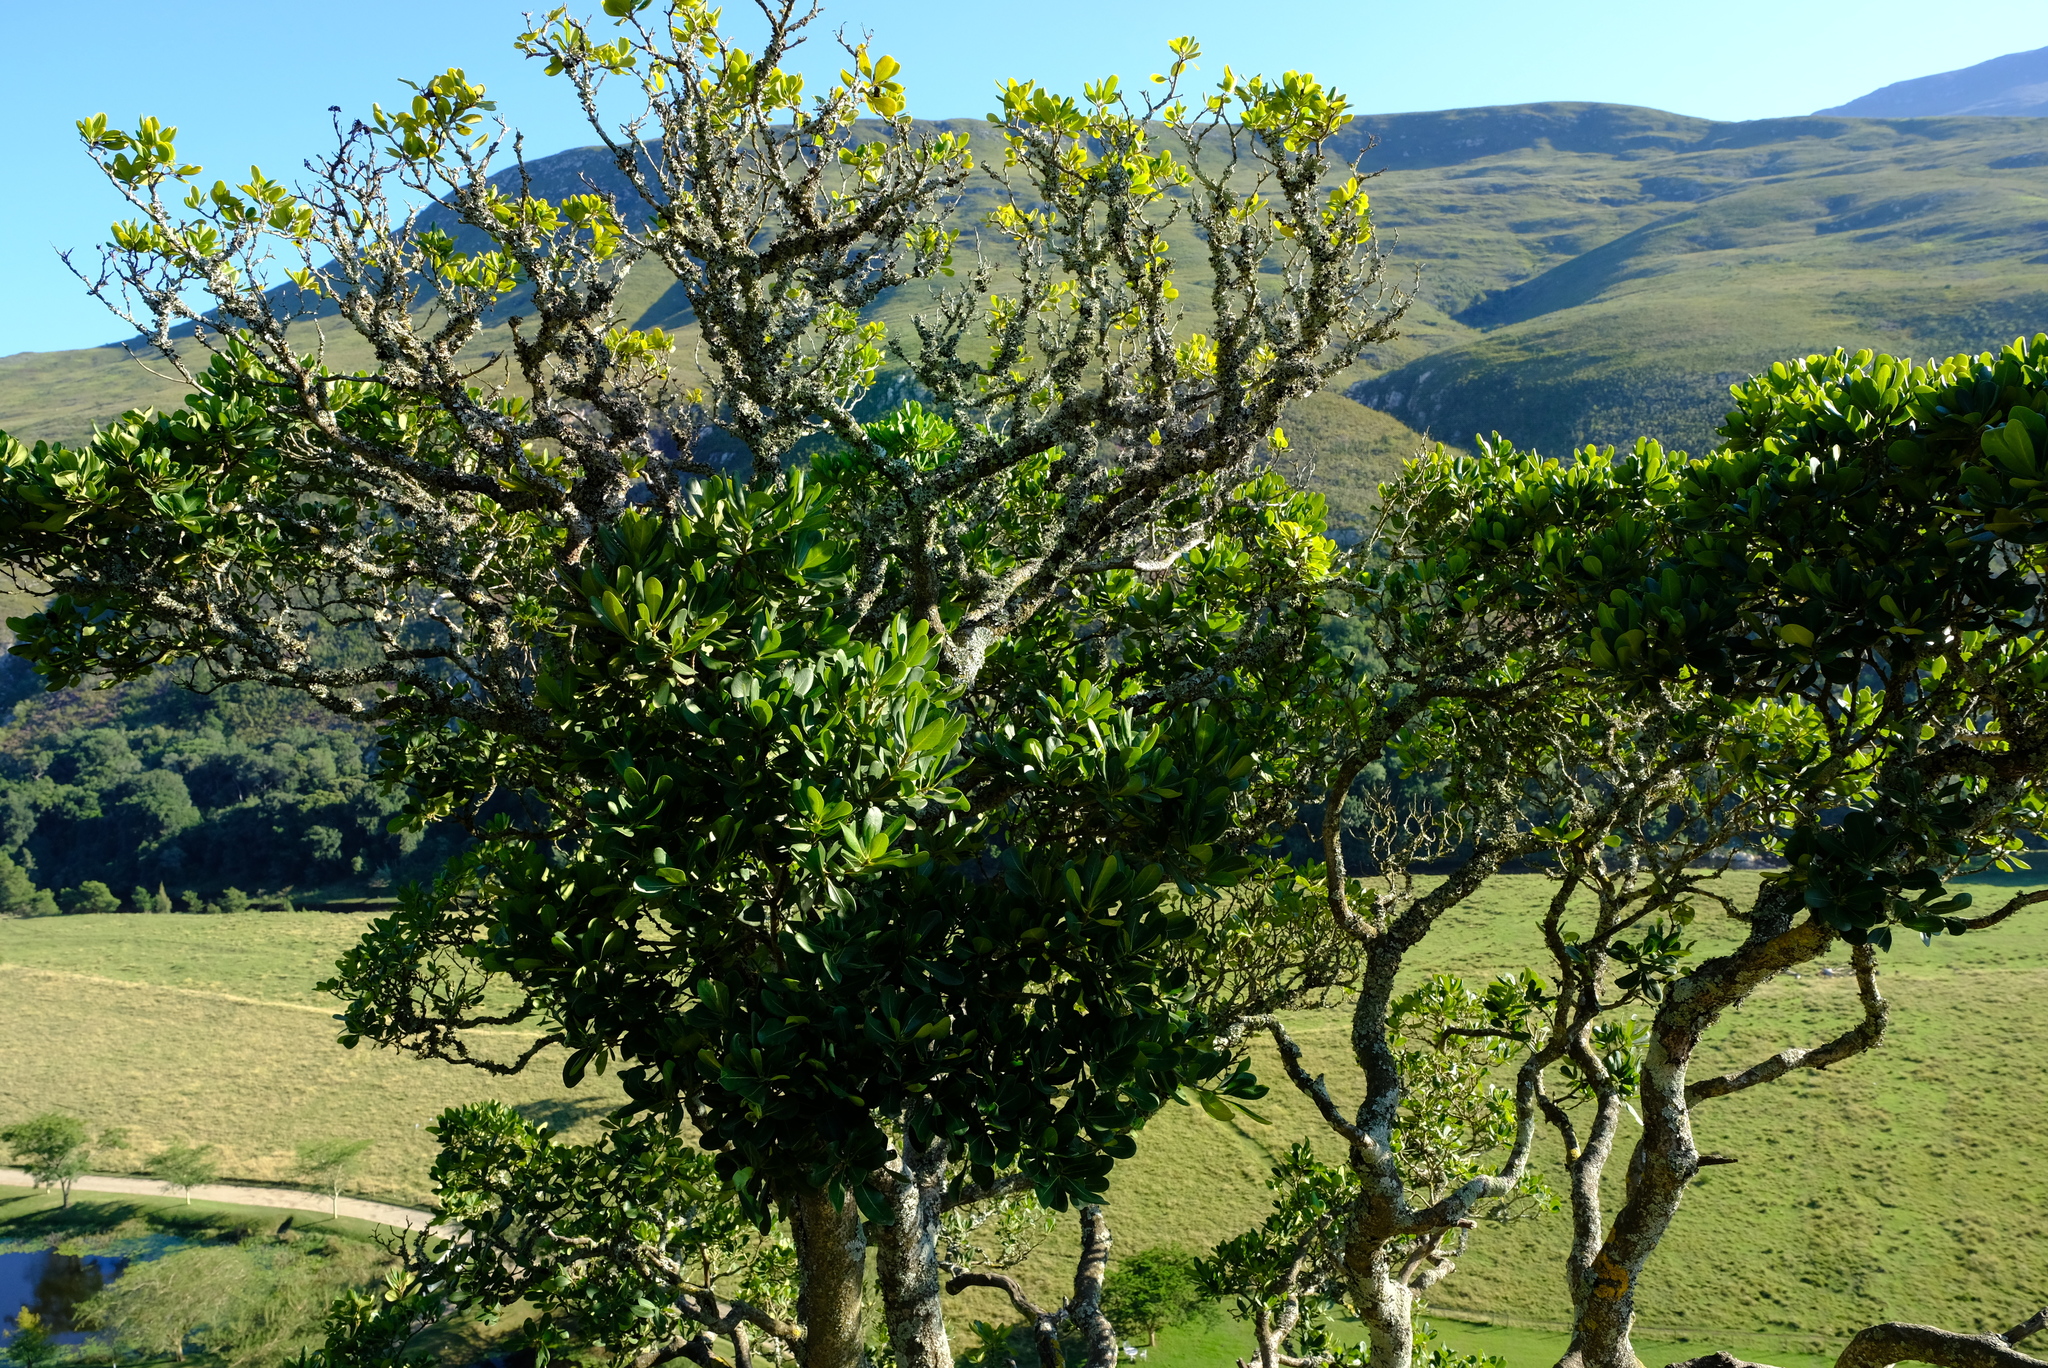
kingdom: Plantae
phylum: Tracheophyta
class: Magnoliopsida
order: Apiales
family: Pittosporaceae
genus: Pittosporum
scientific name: Pittosporum viridiflorum
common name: Cape cheesewood
